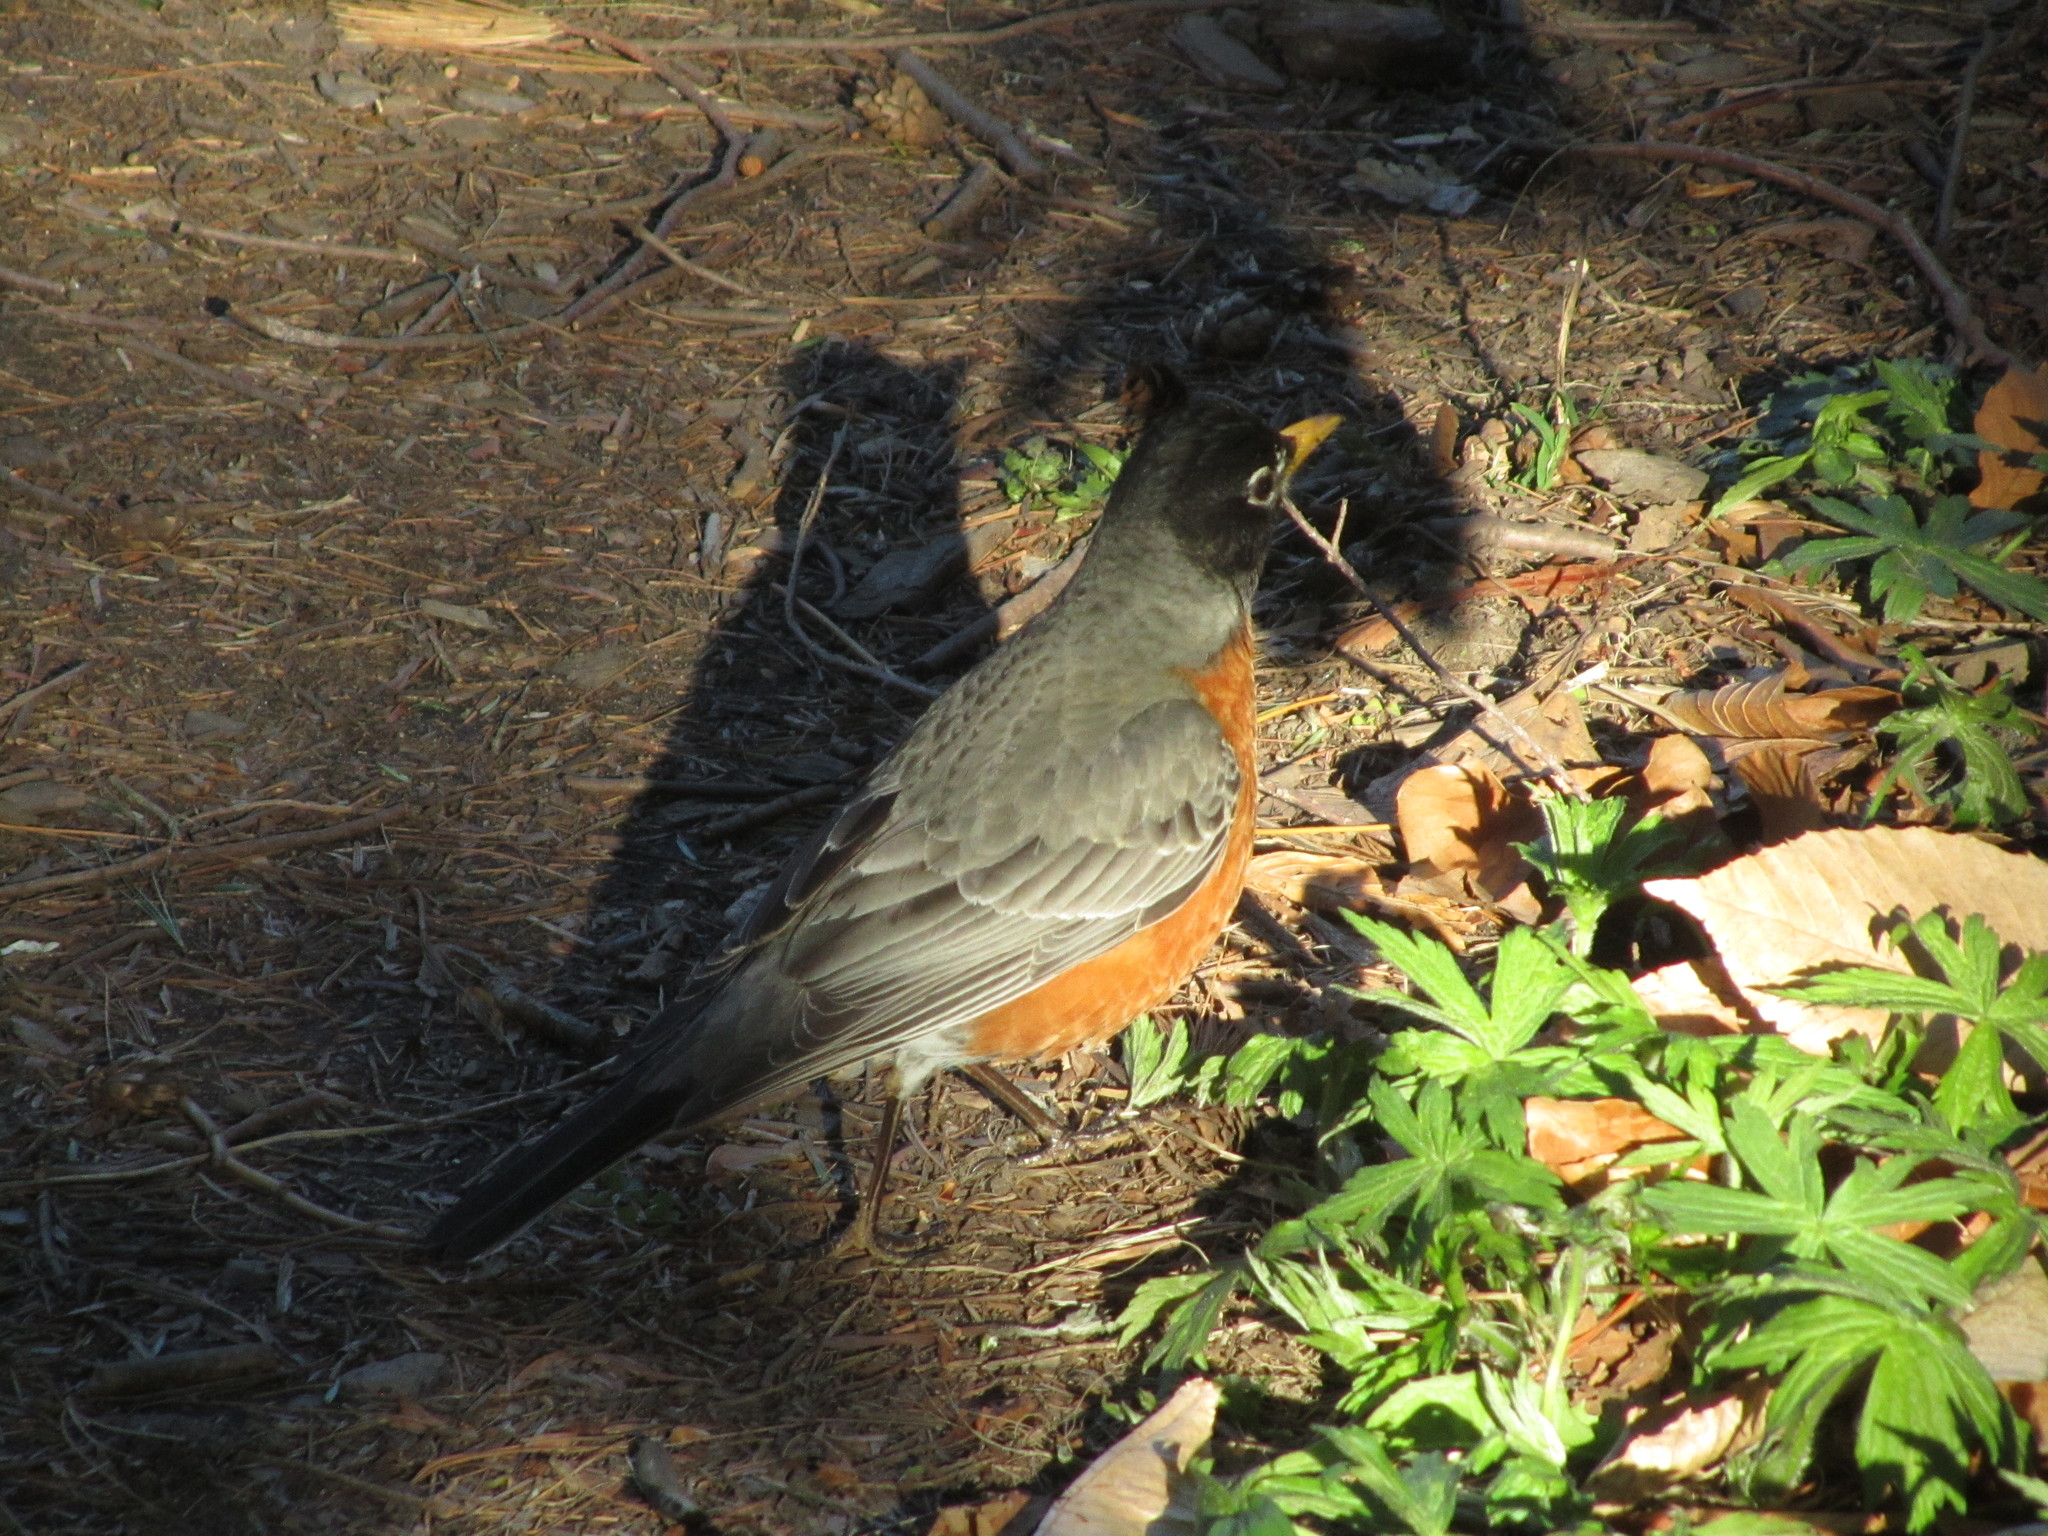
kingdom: Animalia
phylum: Chordata
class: Aves
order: Passeriformes
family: Turdidae
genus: Turdus
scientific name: Turdus migratorius
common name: American robin
